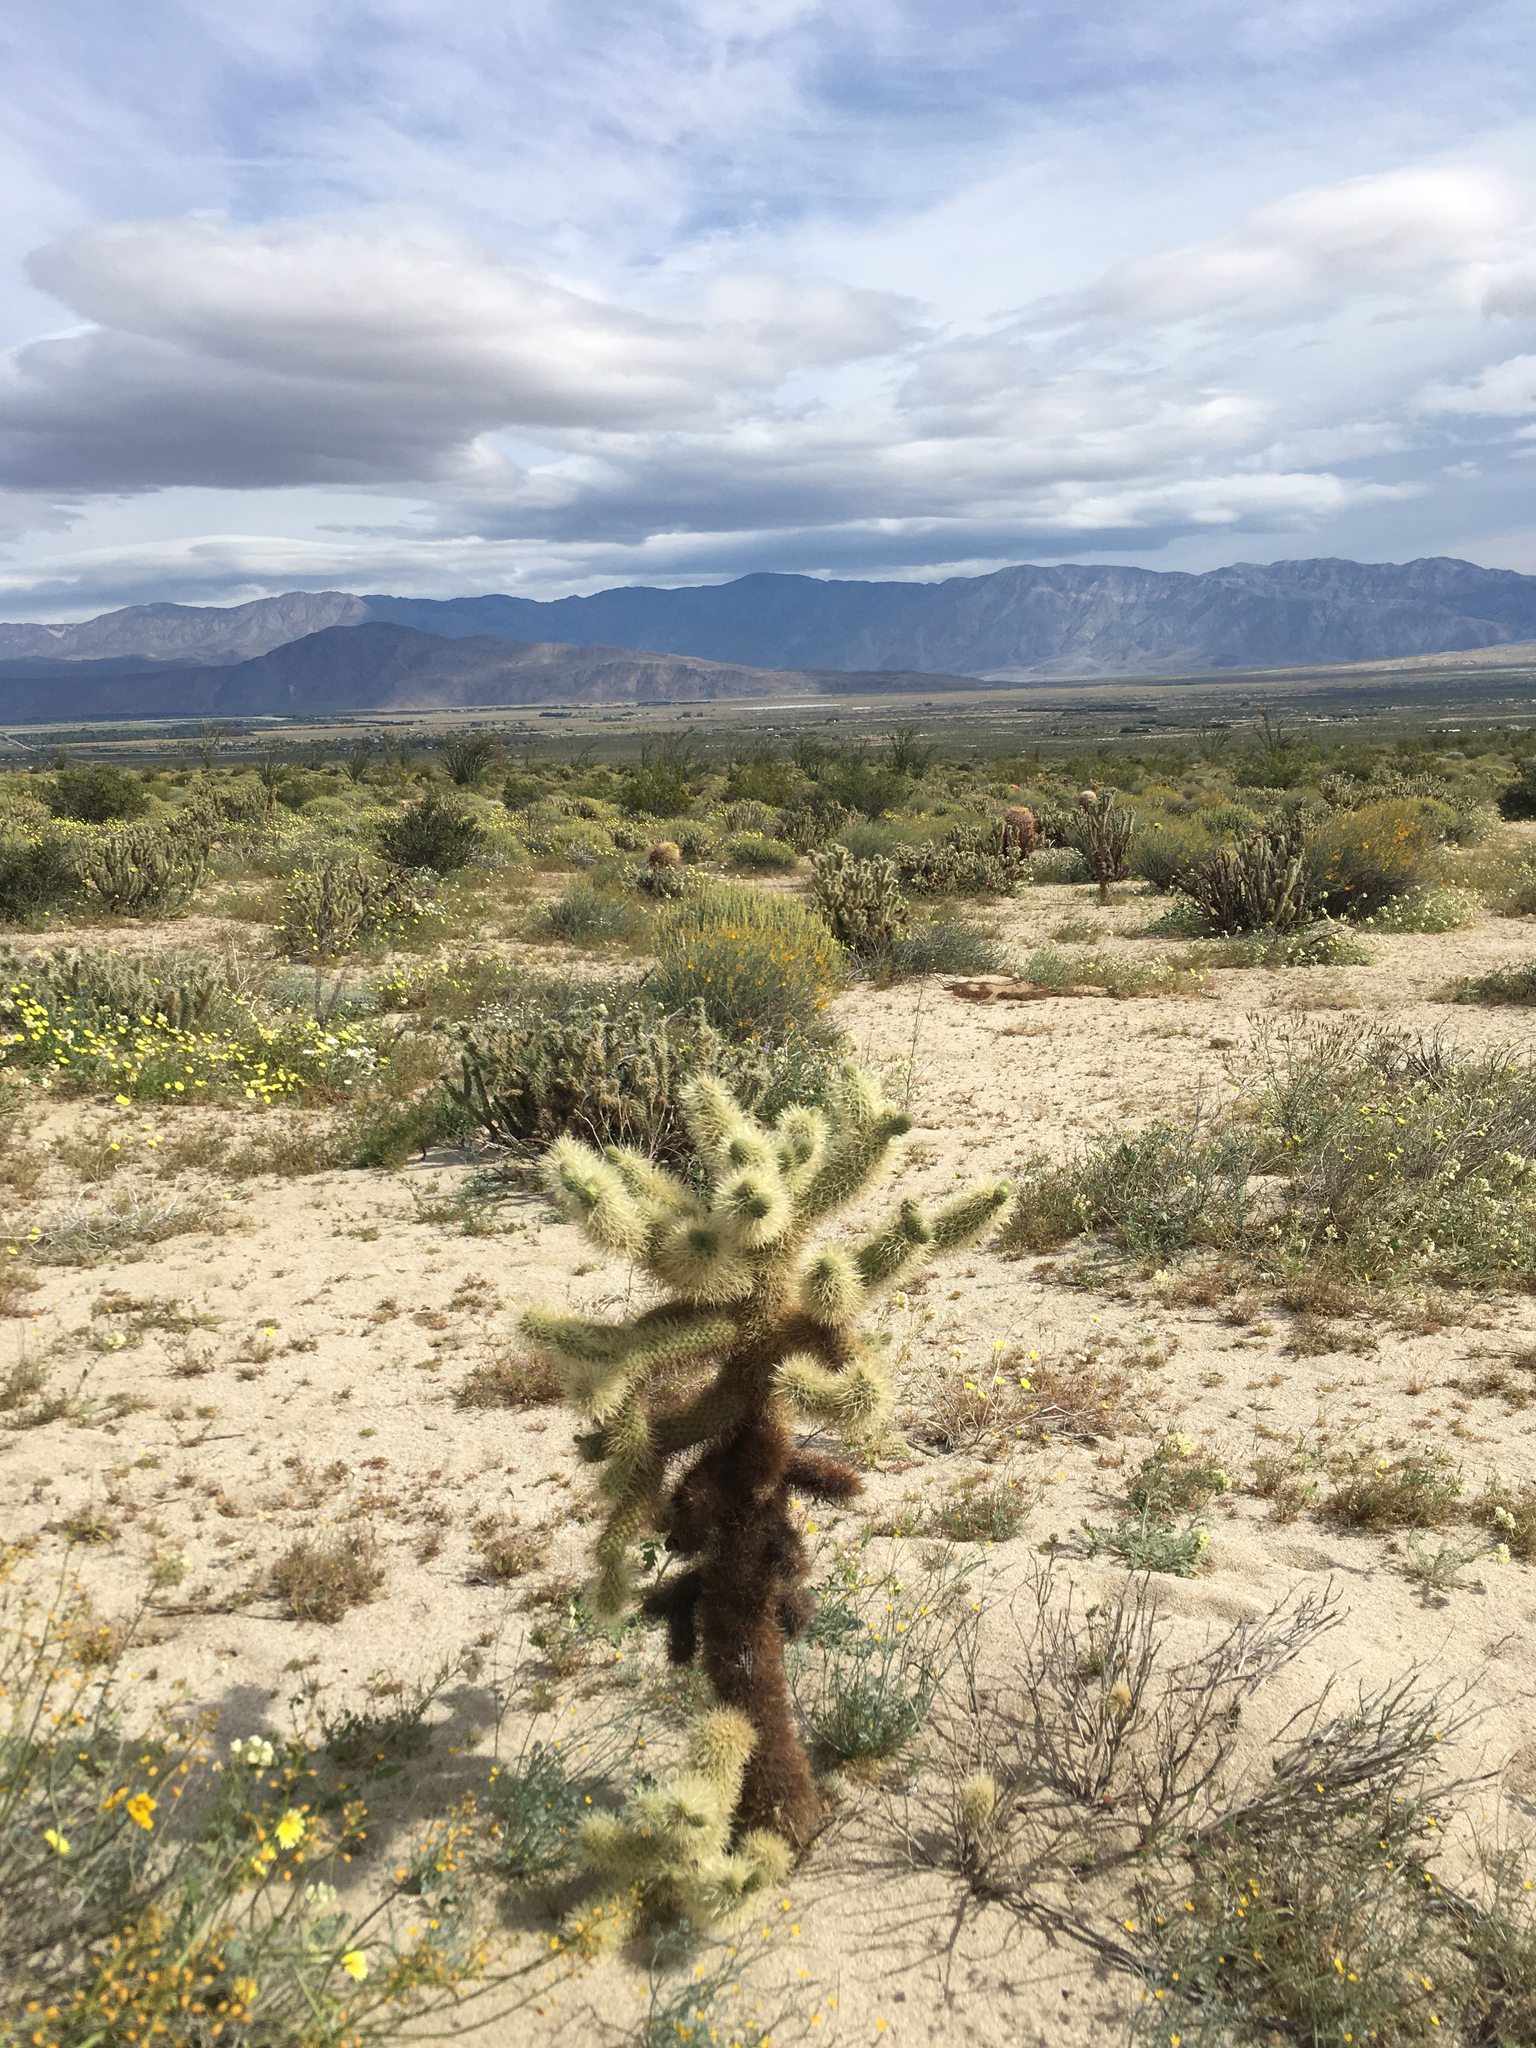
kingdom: Plantae
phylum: Tracheophyta
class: Magnoliopsida
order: Caryophyllales
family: Cactaceae
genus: Cylindropuntia
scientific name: Cylindropuntia fosbergii
